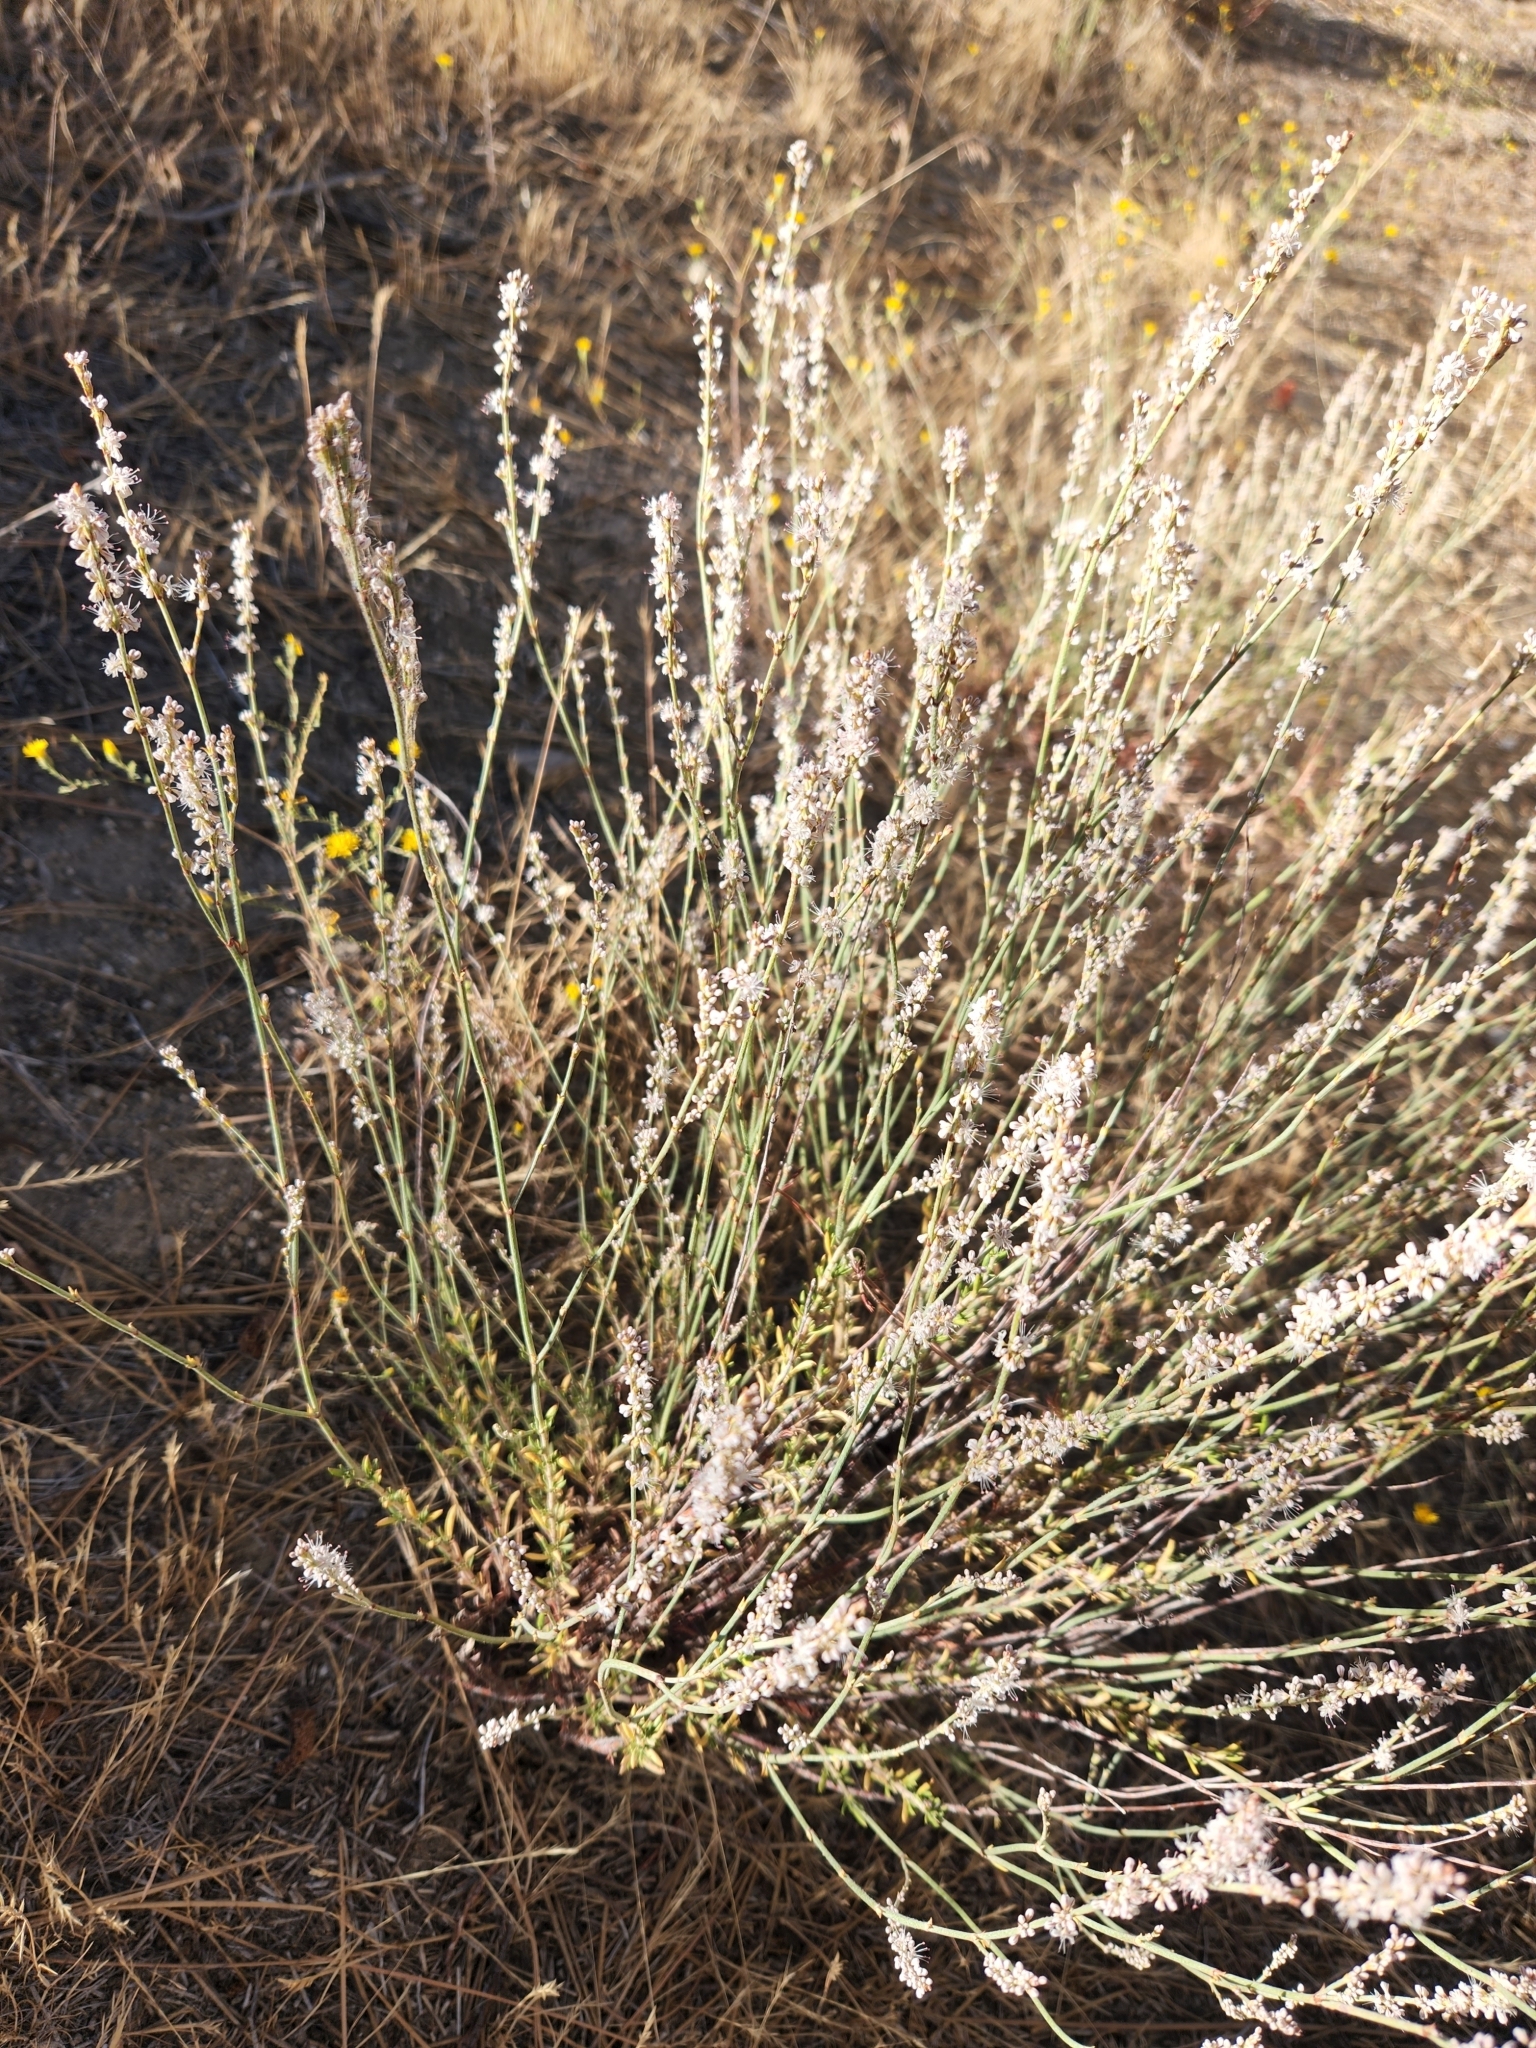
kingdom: Plantae
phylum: Tracheophyta
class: Magnoliopsida
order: Caryophyllales
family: Polygonaceae
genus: Eriogonum
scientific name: Eriogonum wrightii
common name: Bastard-sage
